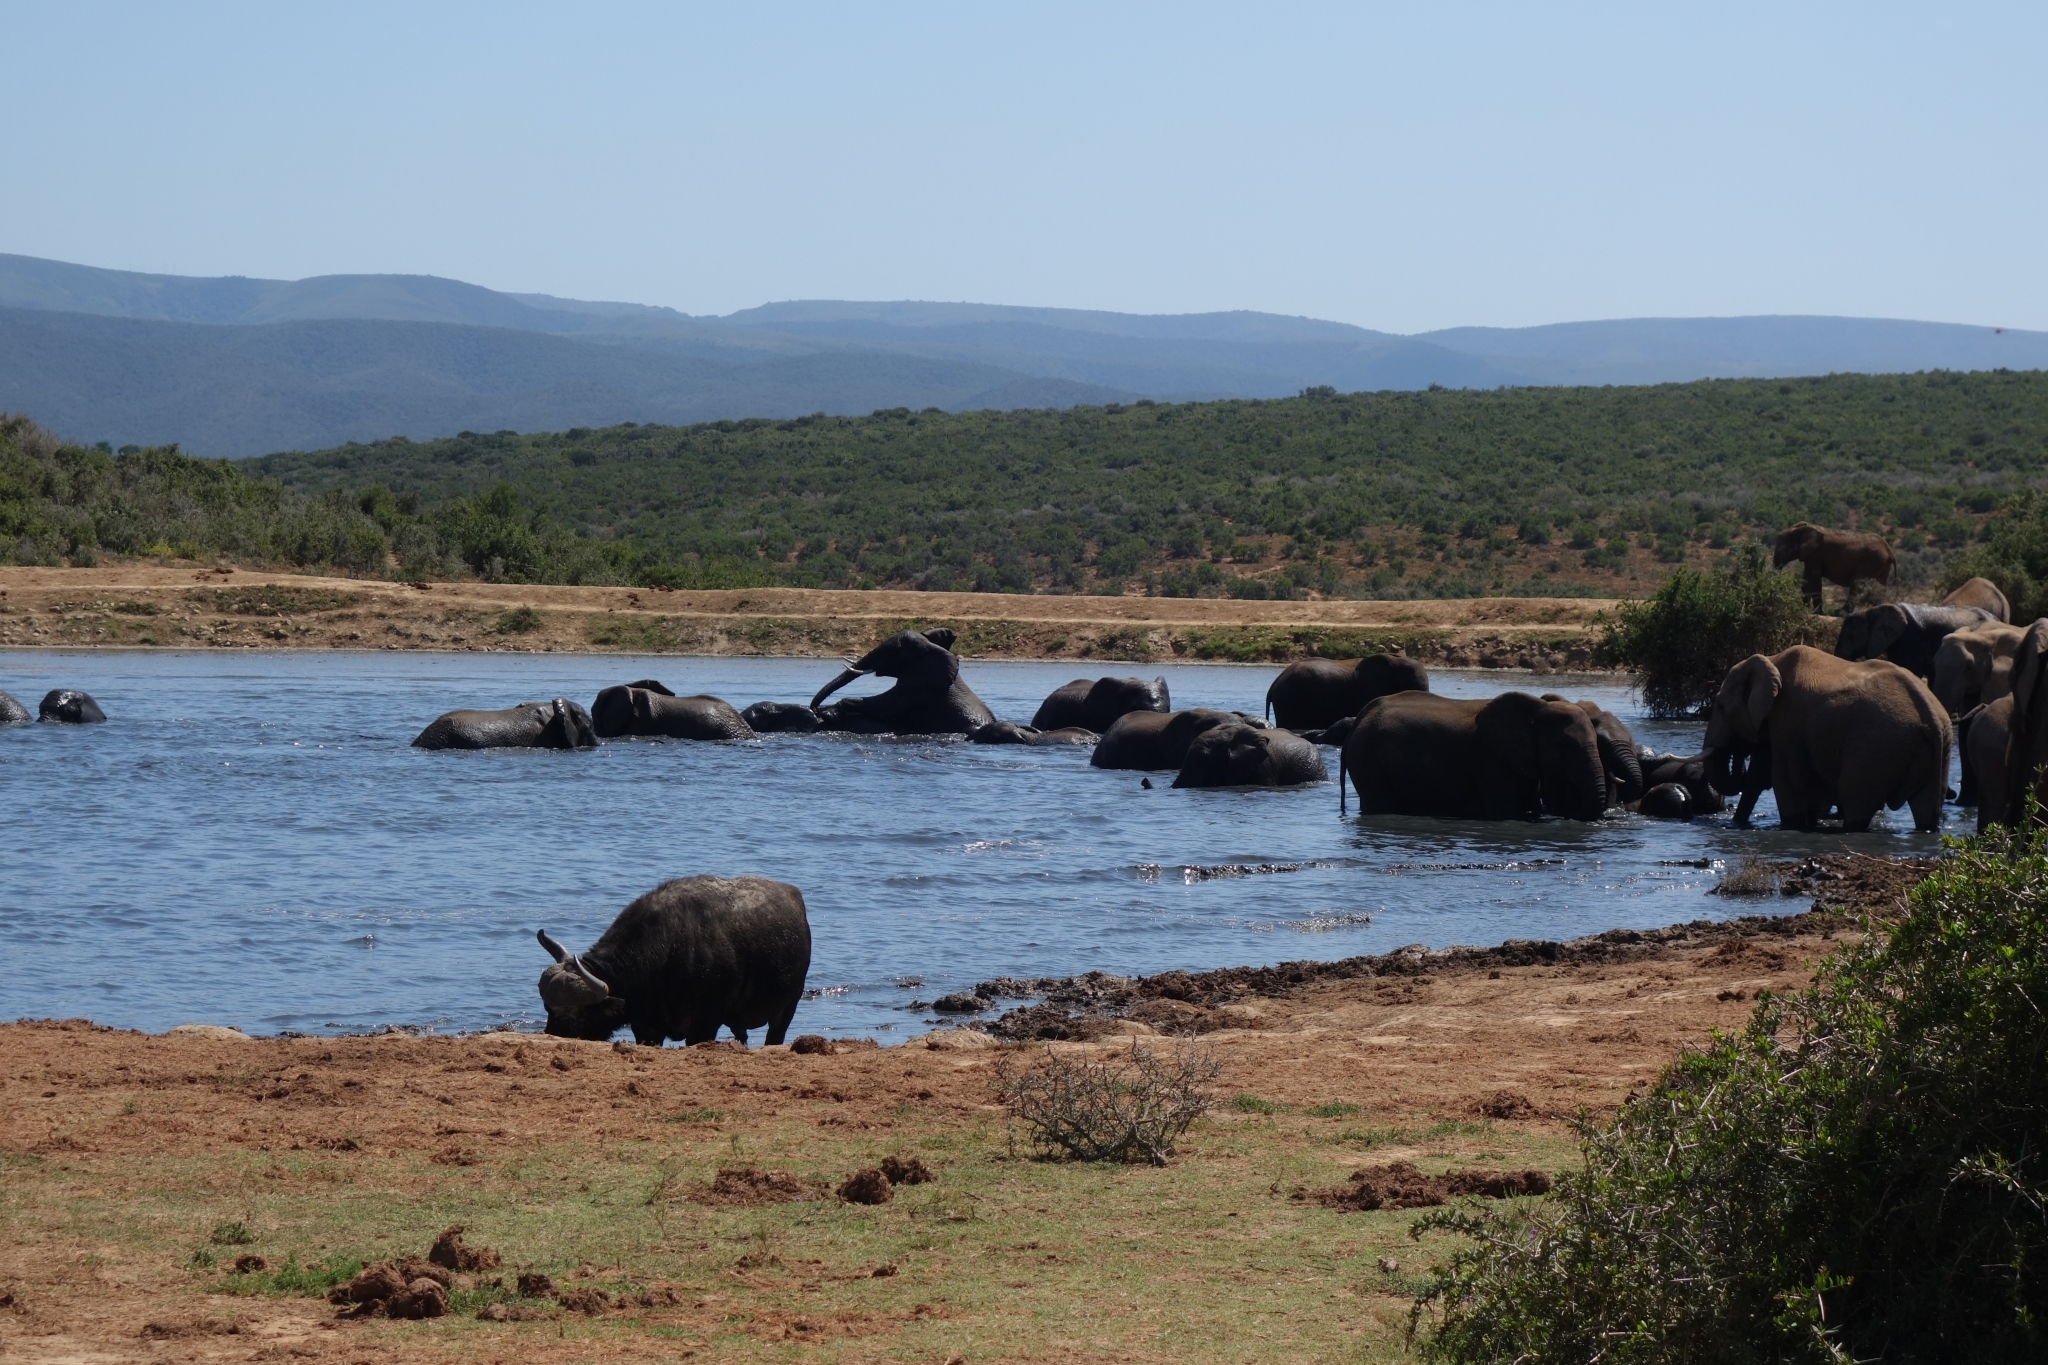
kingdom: Animalia
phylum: Chordata
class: Mammalia
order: Artiodactyla
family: Bovidae
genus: Syncerus
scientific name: Syncerus caffer
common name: African buffalo
